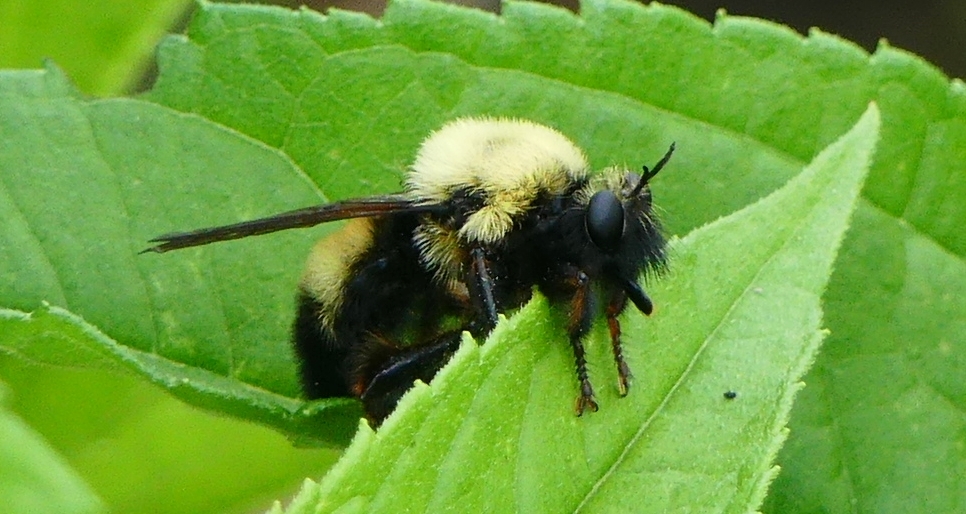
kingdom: Animalia
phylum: Arthropoda
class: Insecta
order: Diptera
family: Asilidae
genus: Laphria
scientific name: Laphria thoracica
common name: Bumble bee mimic robber fly
